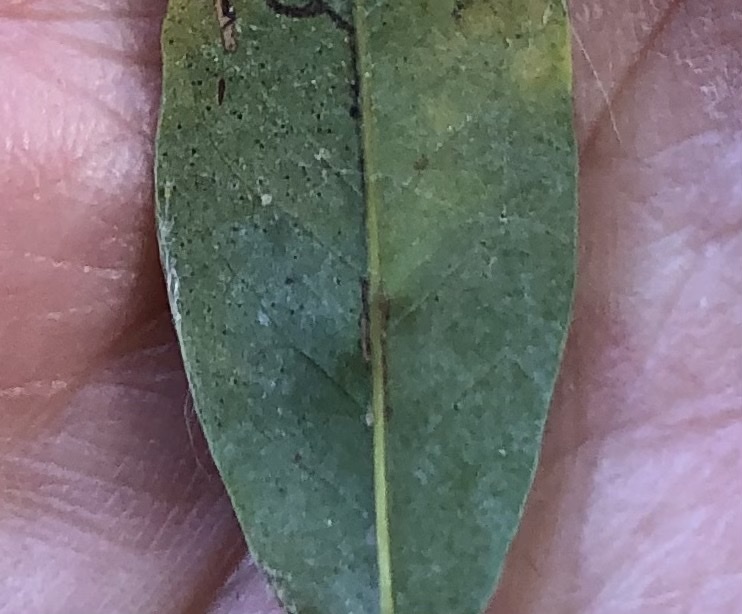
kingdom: Animalia
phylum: Arthropoda
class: Insecta
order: Hymenoptera
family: Cynipidae
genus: Callirhytis
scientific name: Callirhytis
